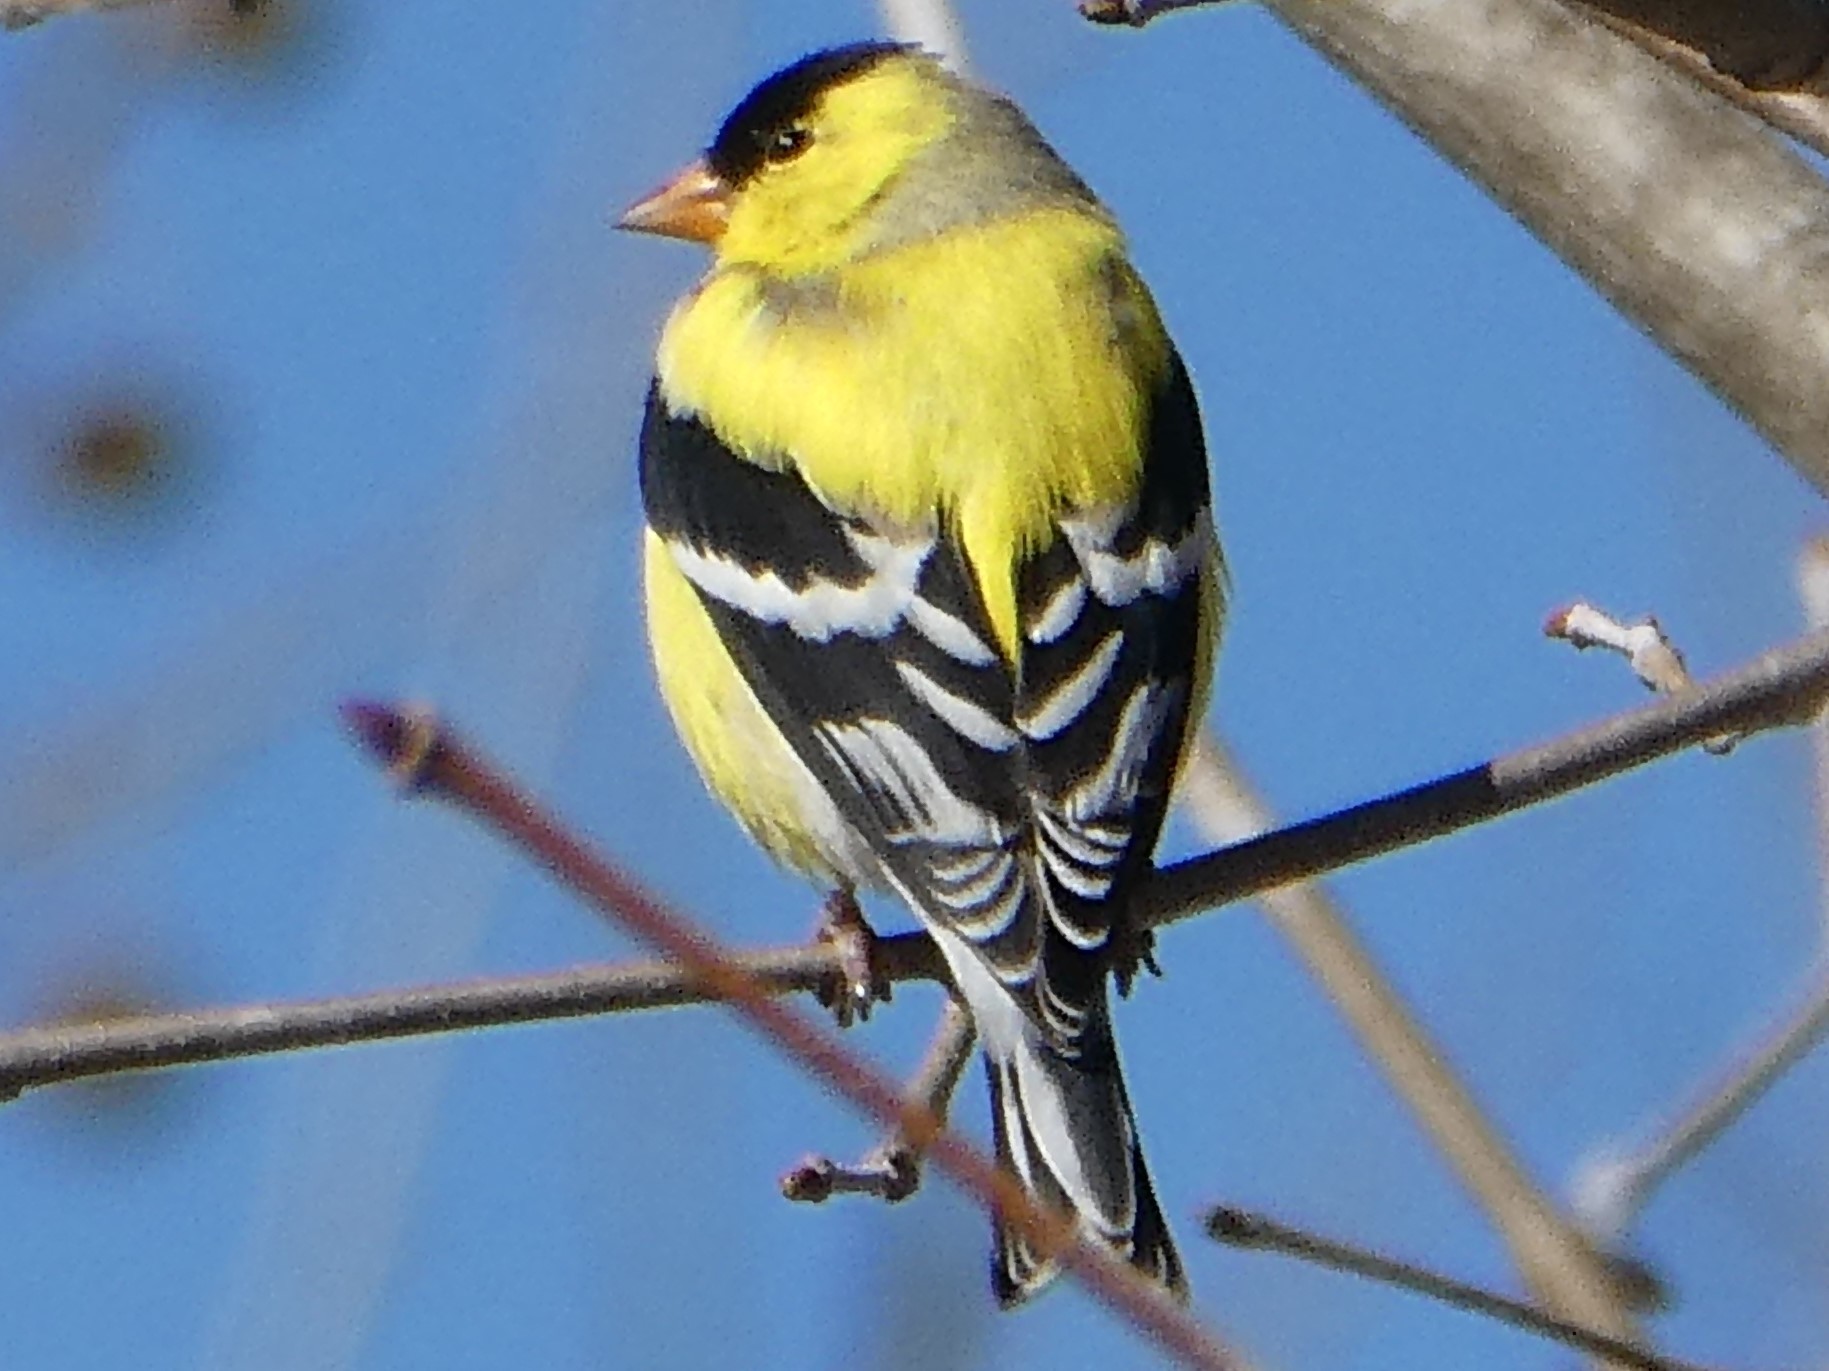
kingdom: Animalia
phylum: Chordata
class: Aves
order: Passeriformes
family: Fringillidae
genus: Spinus
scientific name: Spinus tristis
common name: American goldfinch
